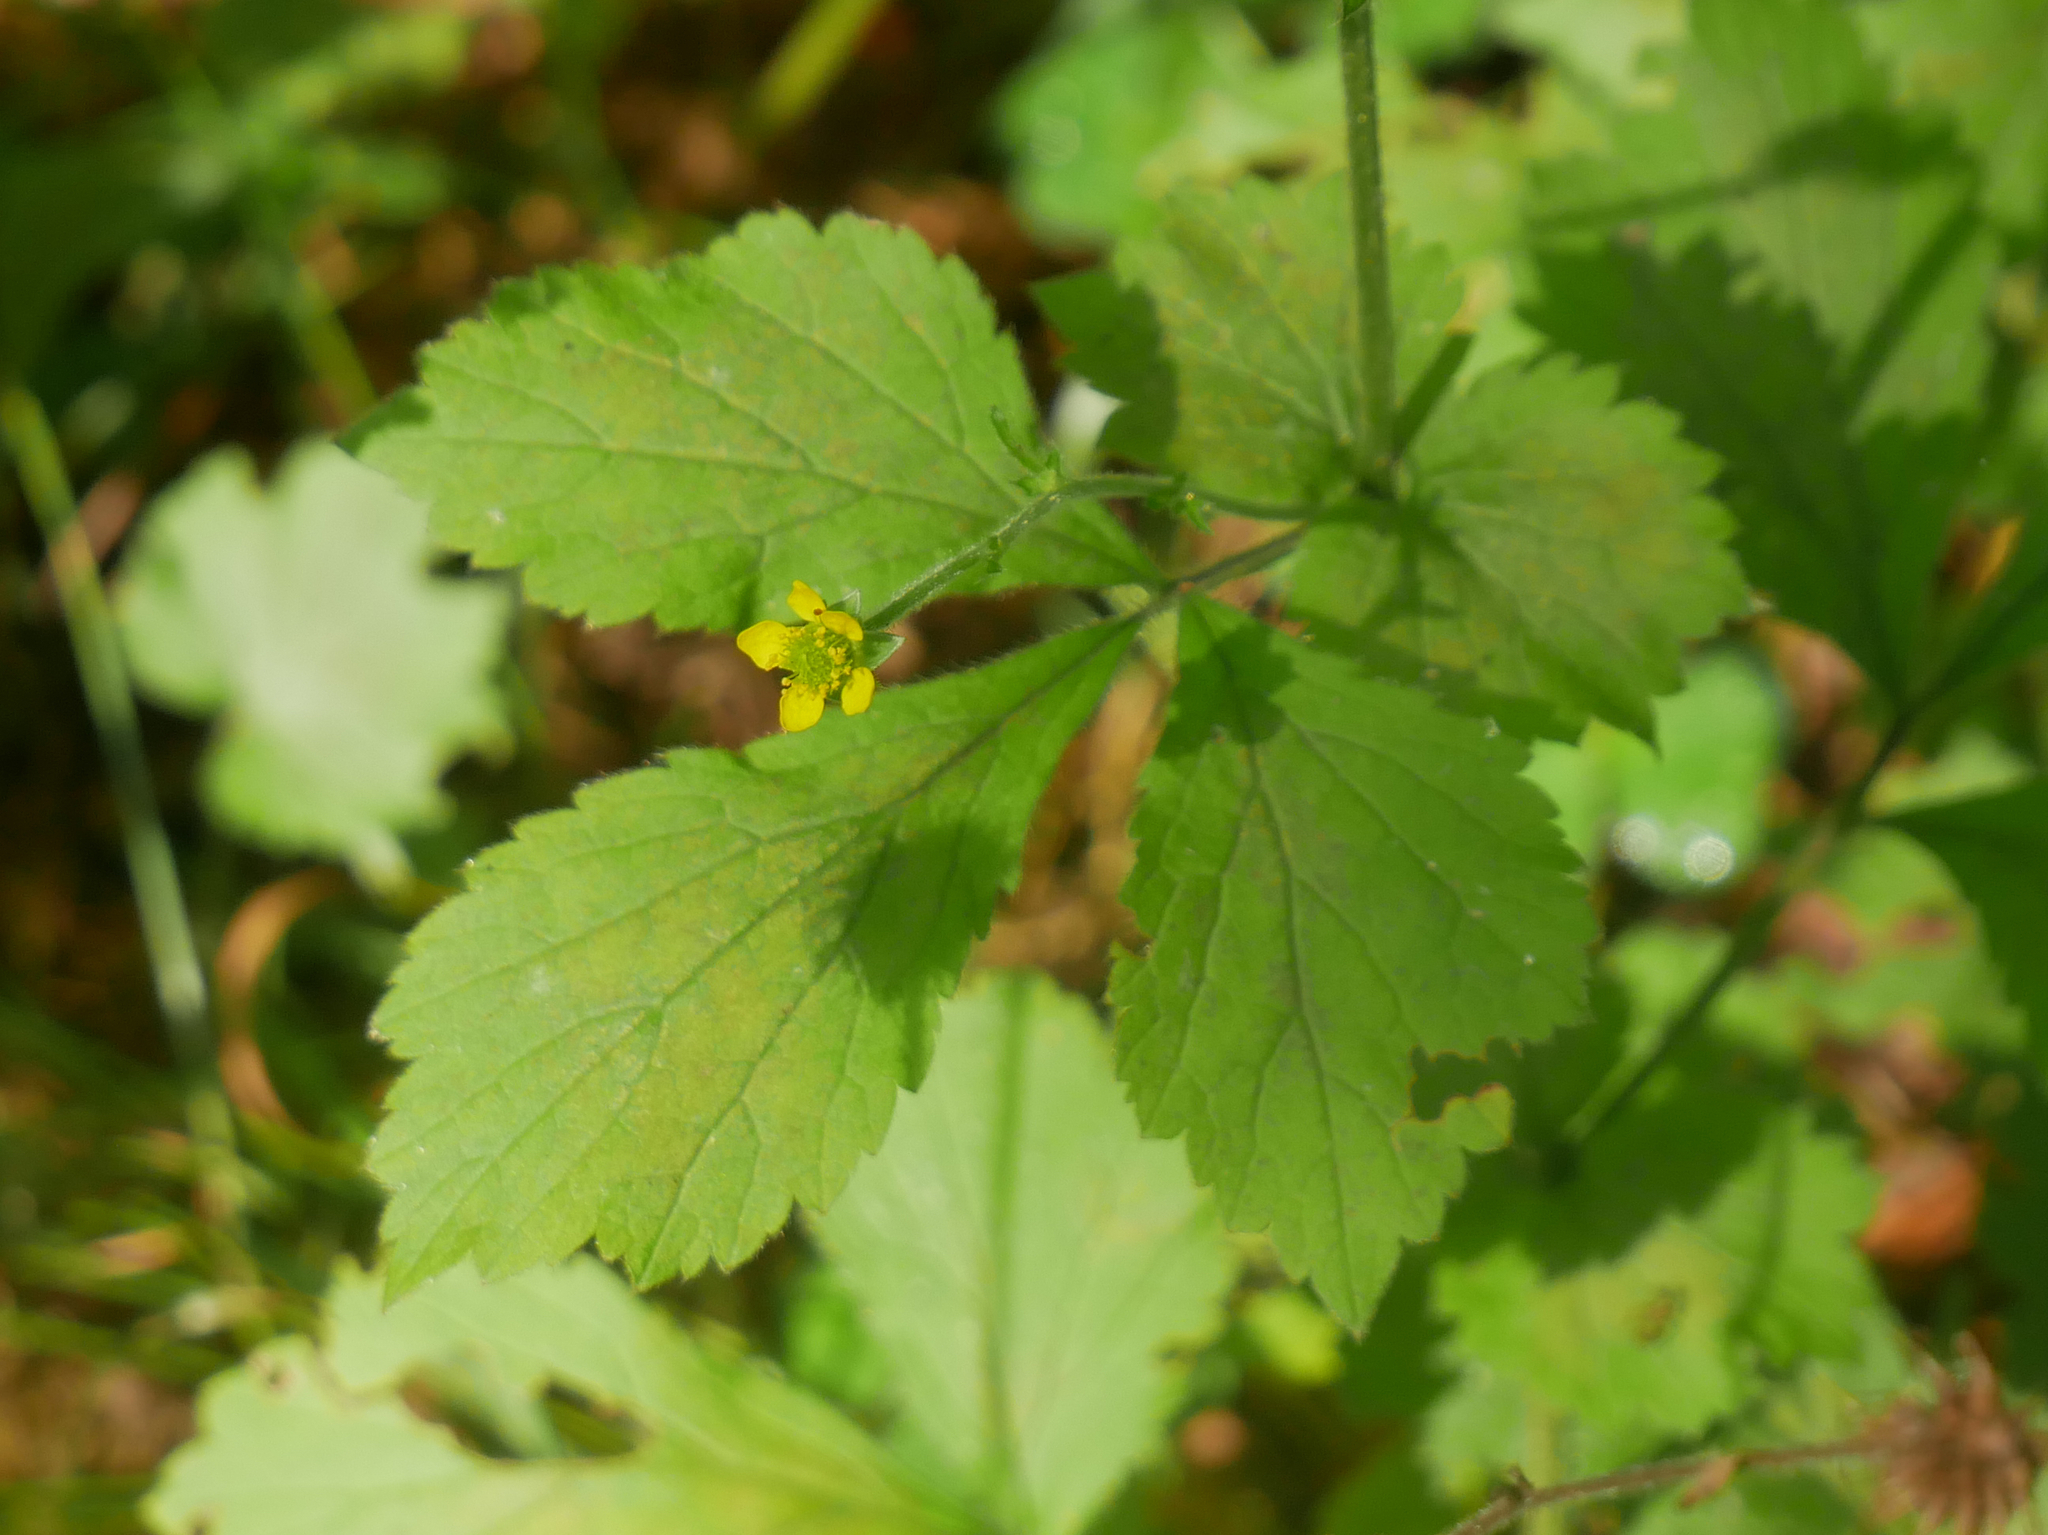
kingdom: Plantae
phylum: Tracheophyta
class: Magnoliopsida
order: Rosales
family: Rosaceae
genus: Geum
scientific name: Geum urbanum
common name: Wood avens
